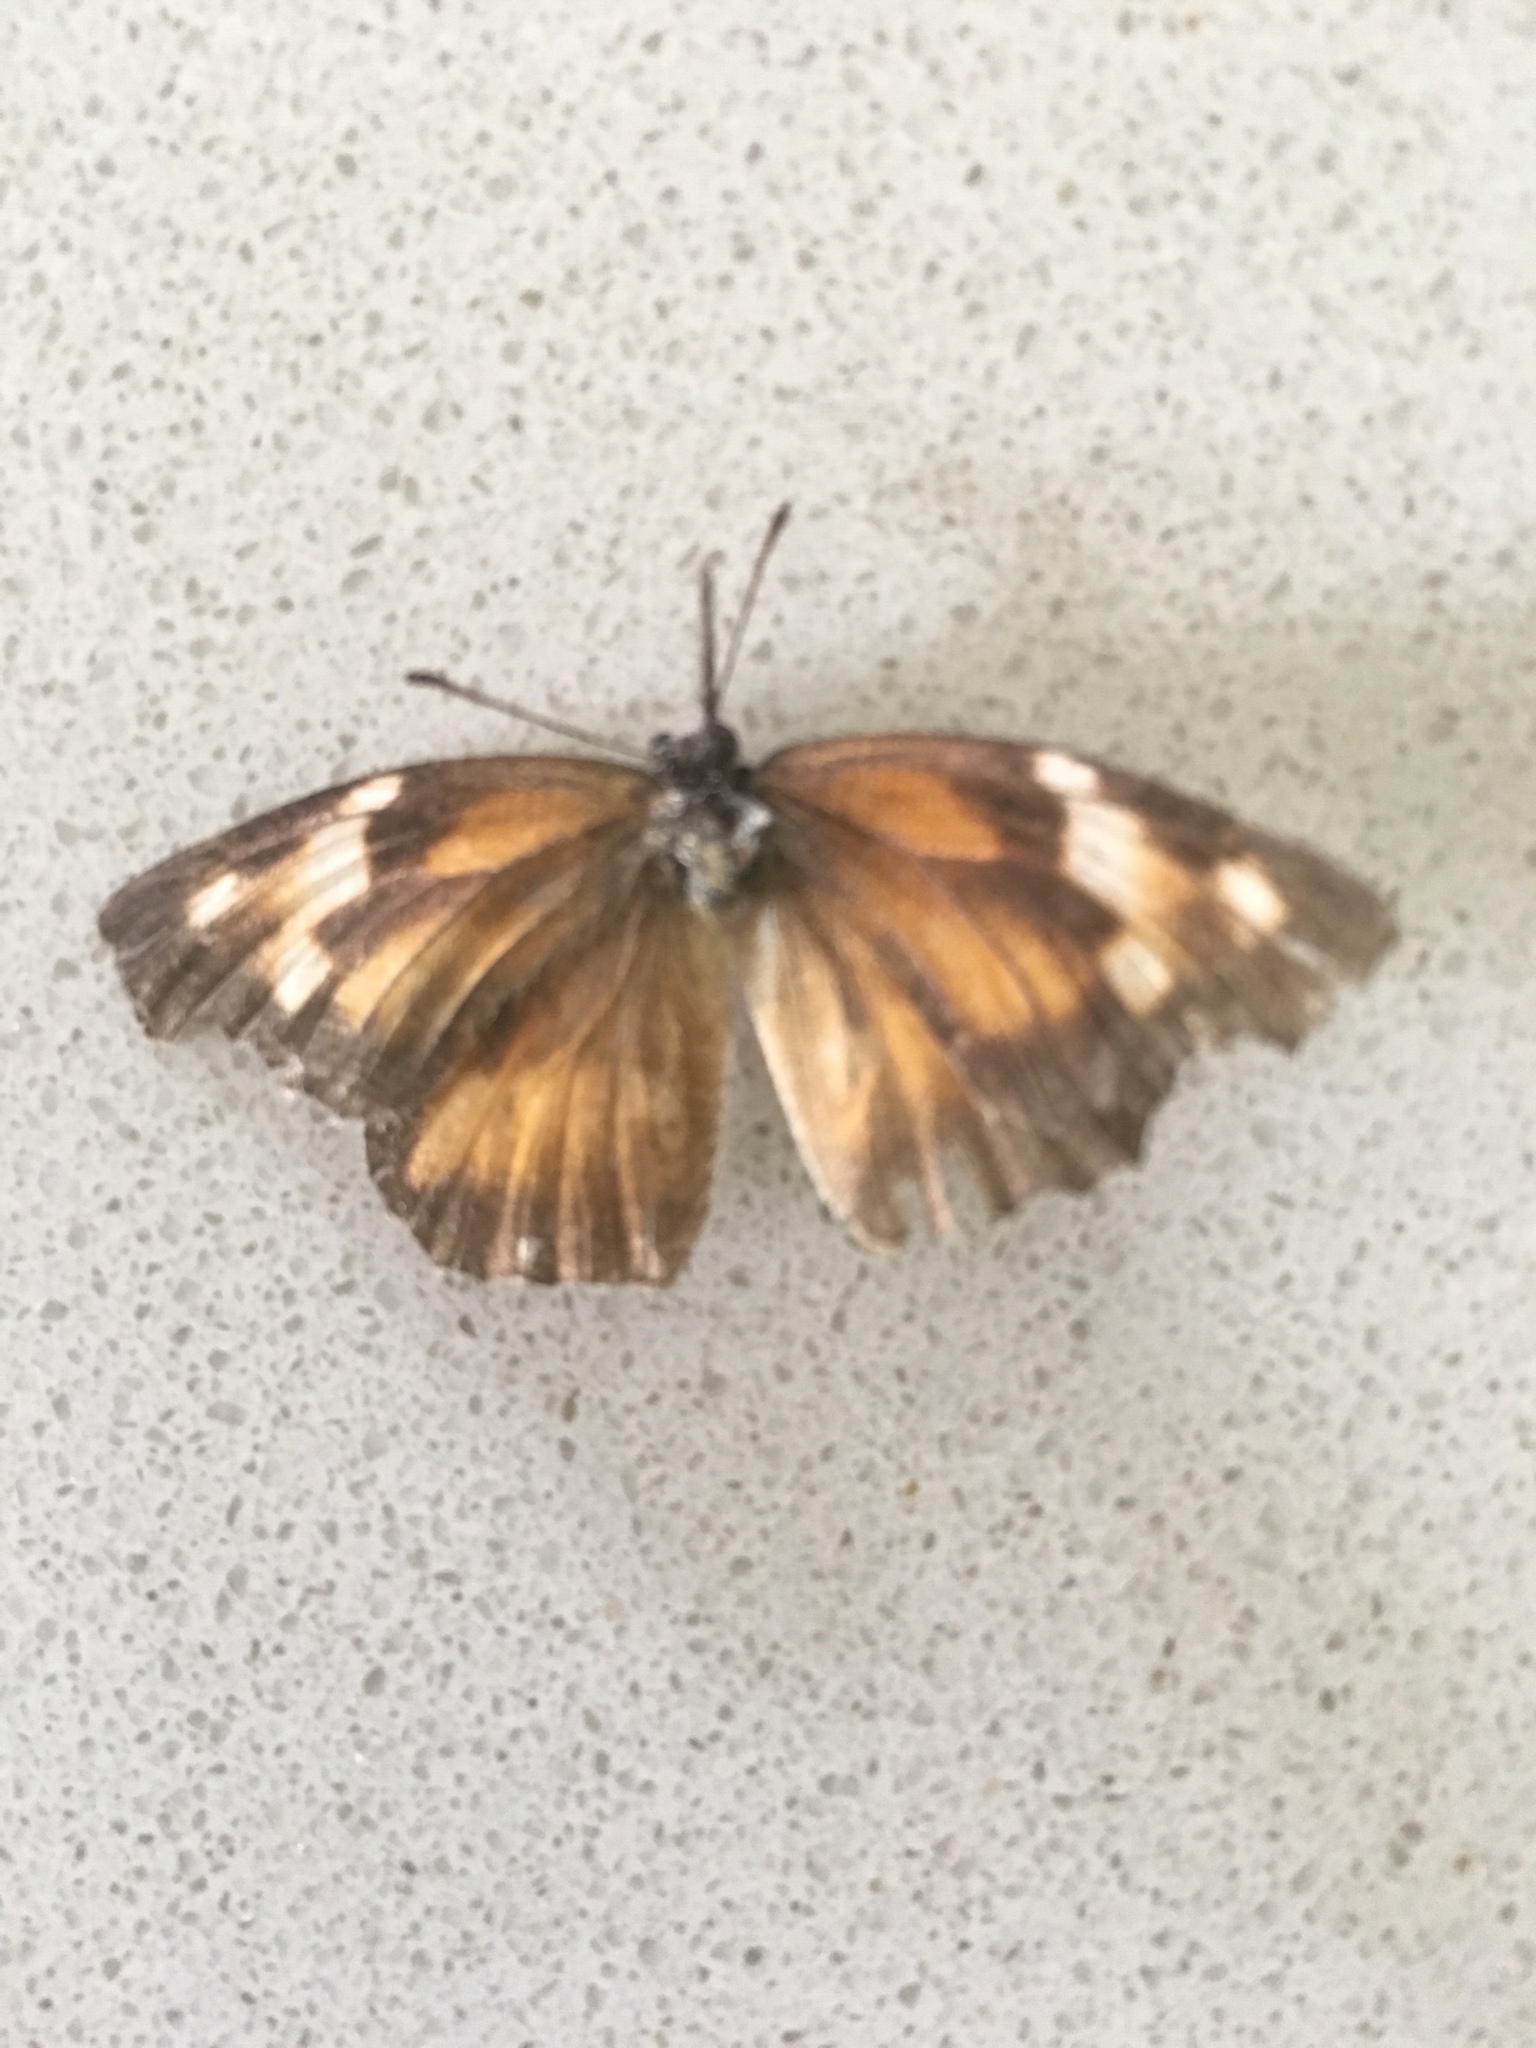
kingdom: Animalia
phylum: Arthropoda
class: Insecta
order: Lepidoptera
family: Nymphalidae
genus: Libytheana
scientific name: Libytheana carinenta
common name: American snout
